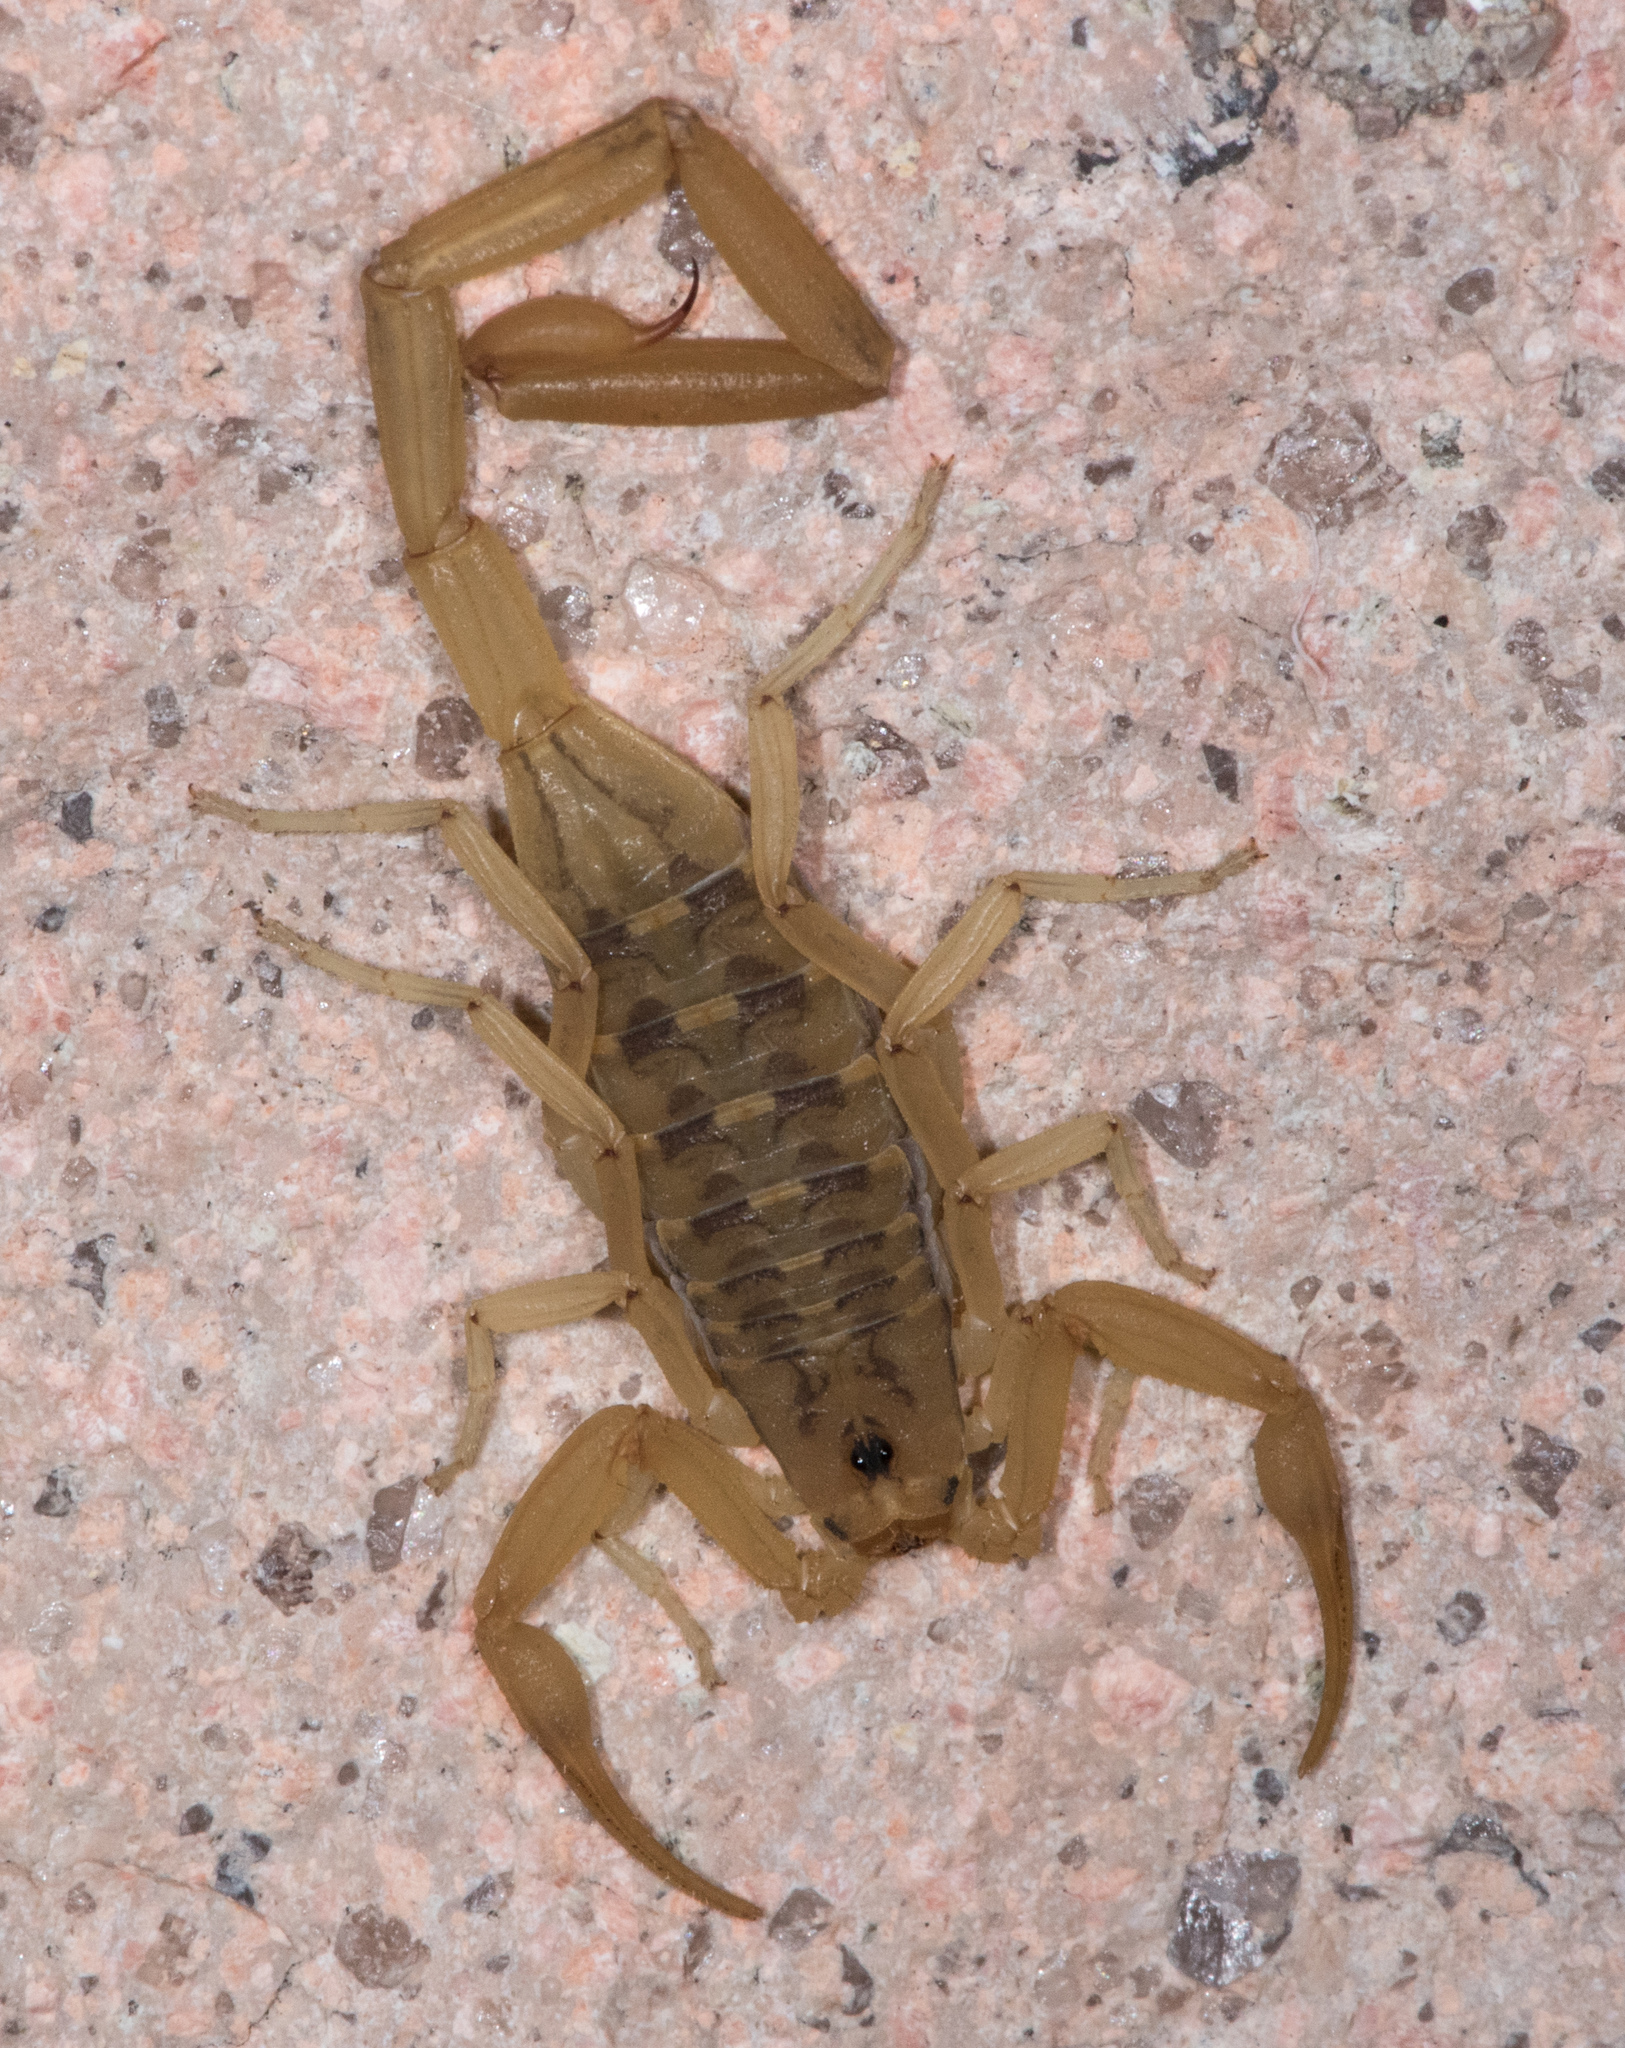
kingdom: Animalia
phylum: Arthropoda
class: Arachnida
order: Scorpiones
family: Buthidae
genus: Centruroides
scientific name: Centruroides sculpturatus
